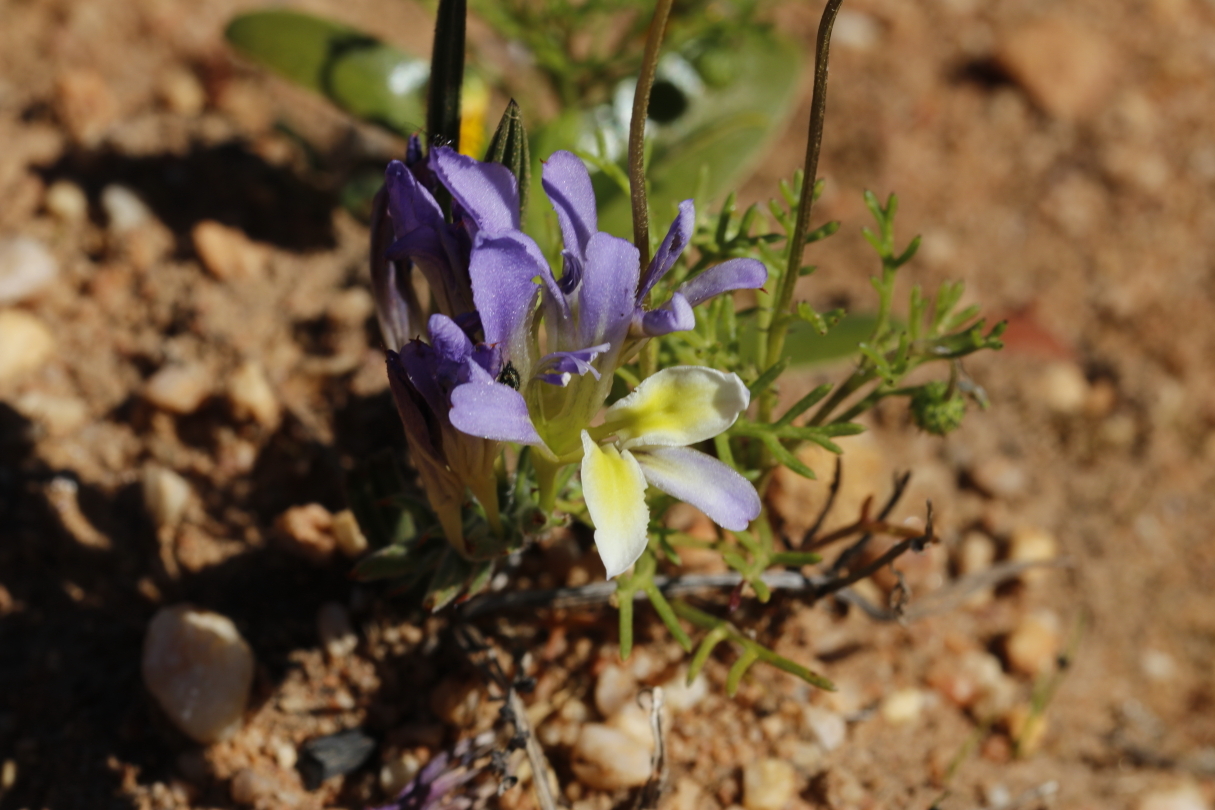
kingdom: Plantae
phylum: Tracheophyta
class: Liliopsida
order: Asparagales
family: Iridaceae
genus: Babiana
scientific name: Babiana mucronata
